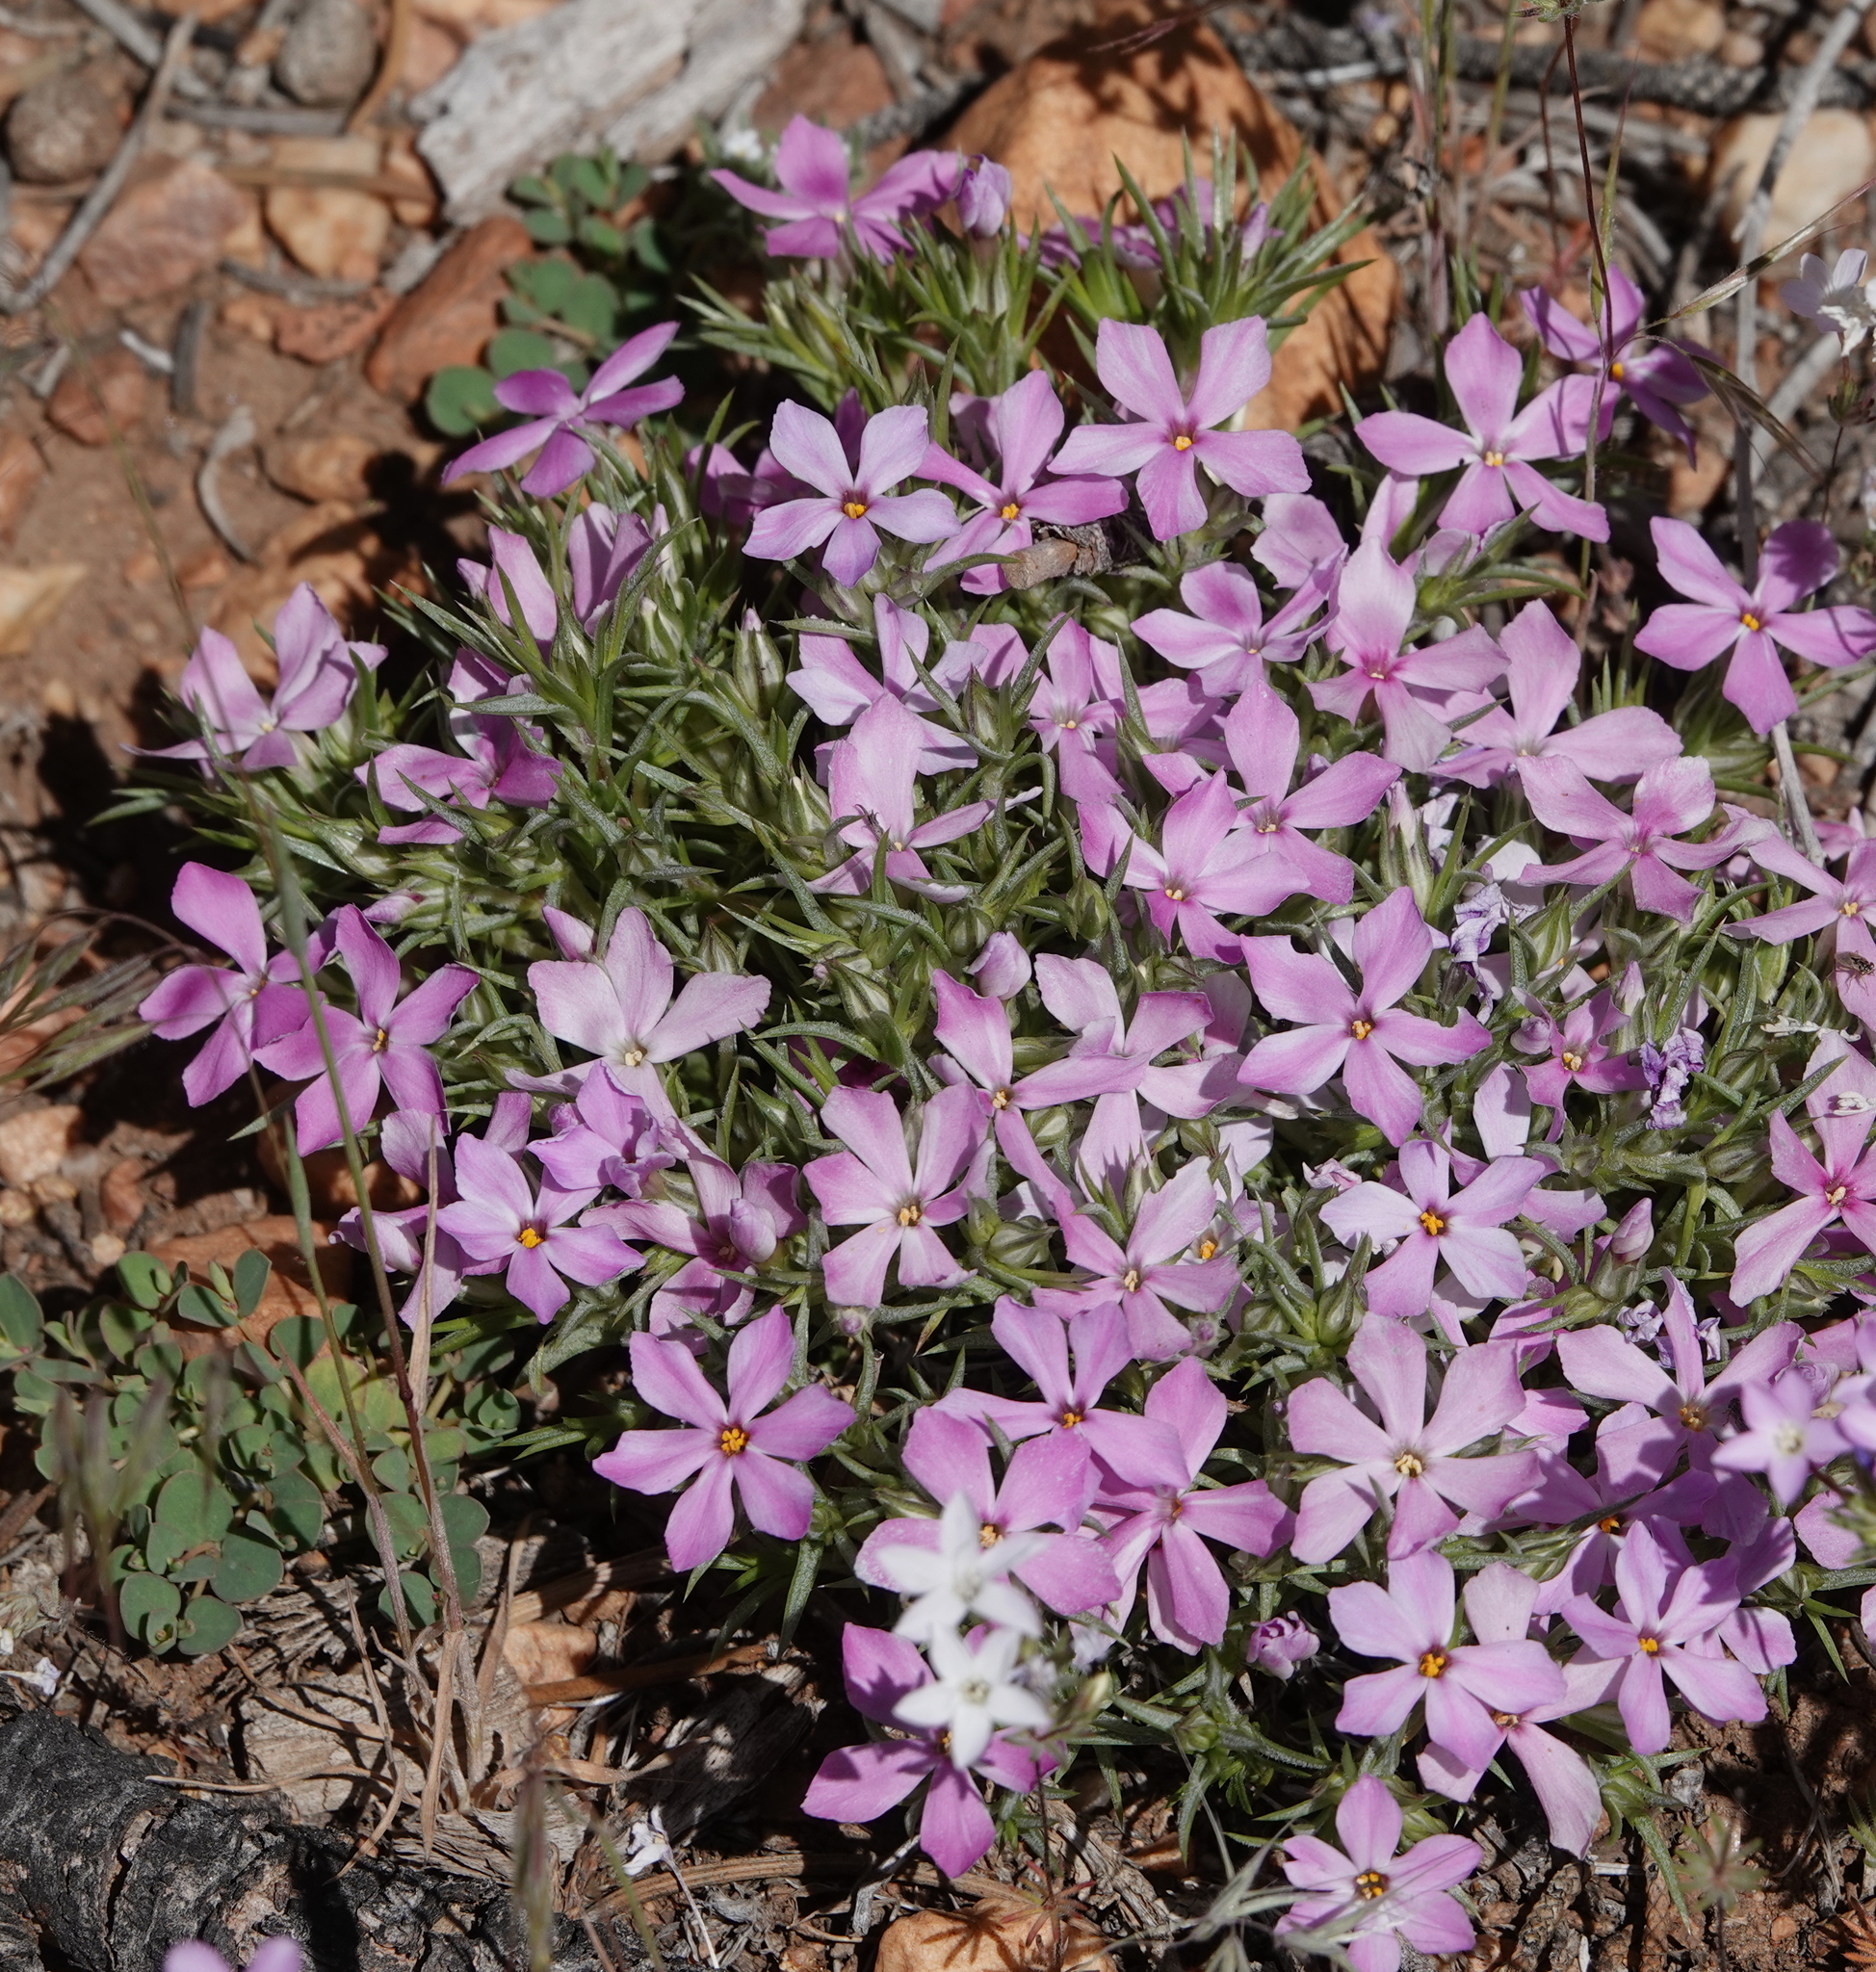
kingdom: Plantae
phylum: Tracheophyta
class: Magnoliopsida
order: Ericales
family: Polemoniaceae
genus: Phlox
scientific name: Phlox austromontana
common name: Desert phlox
